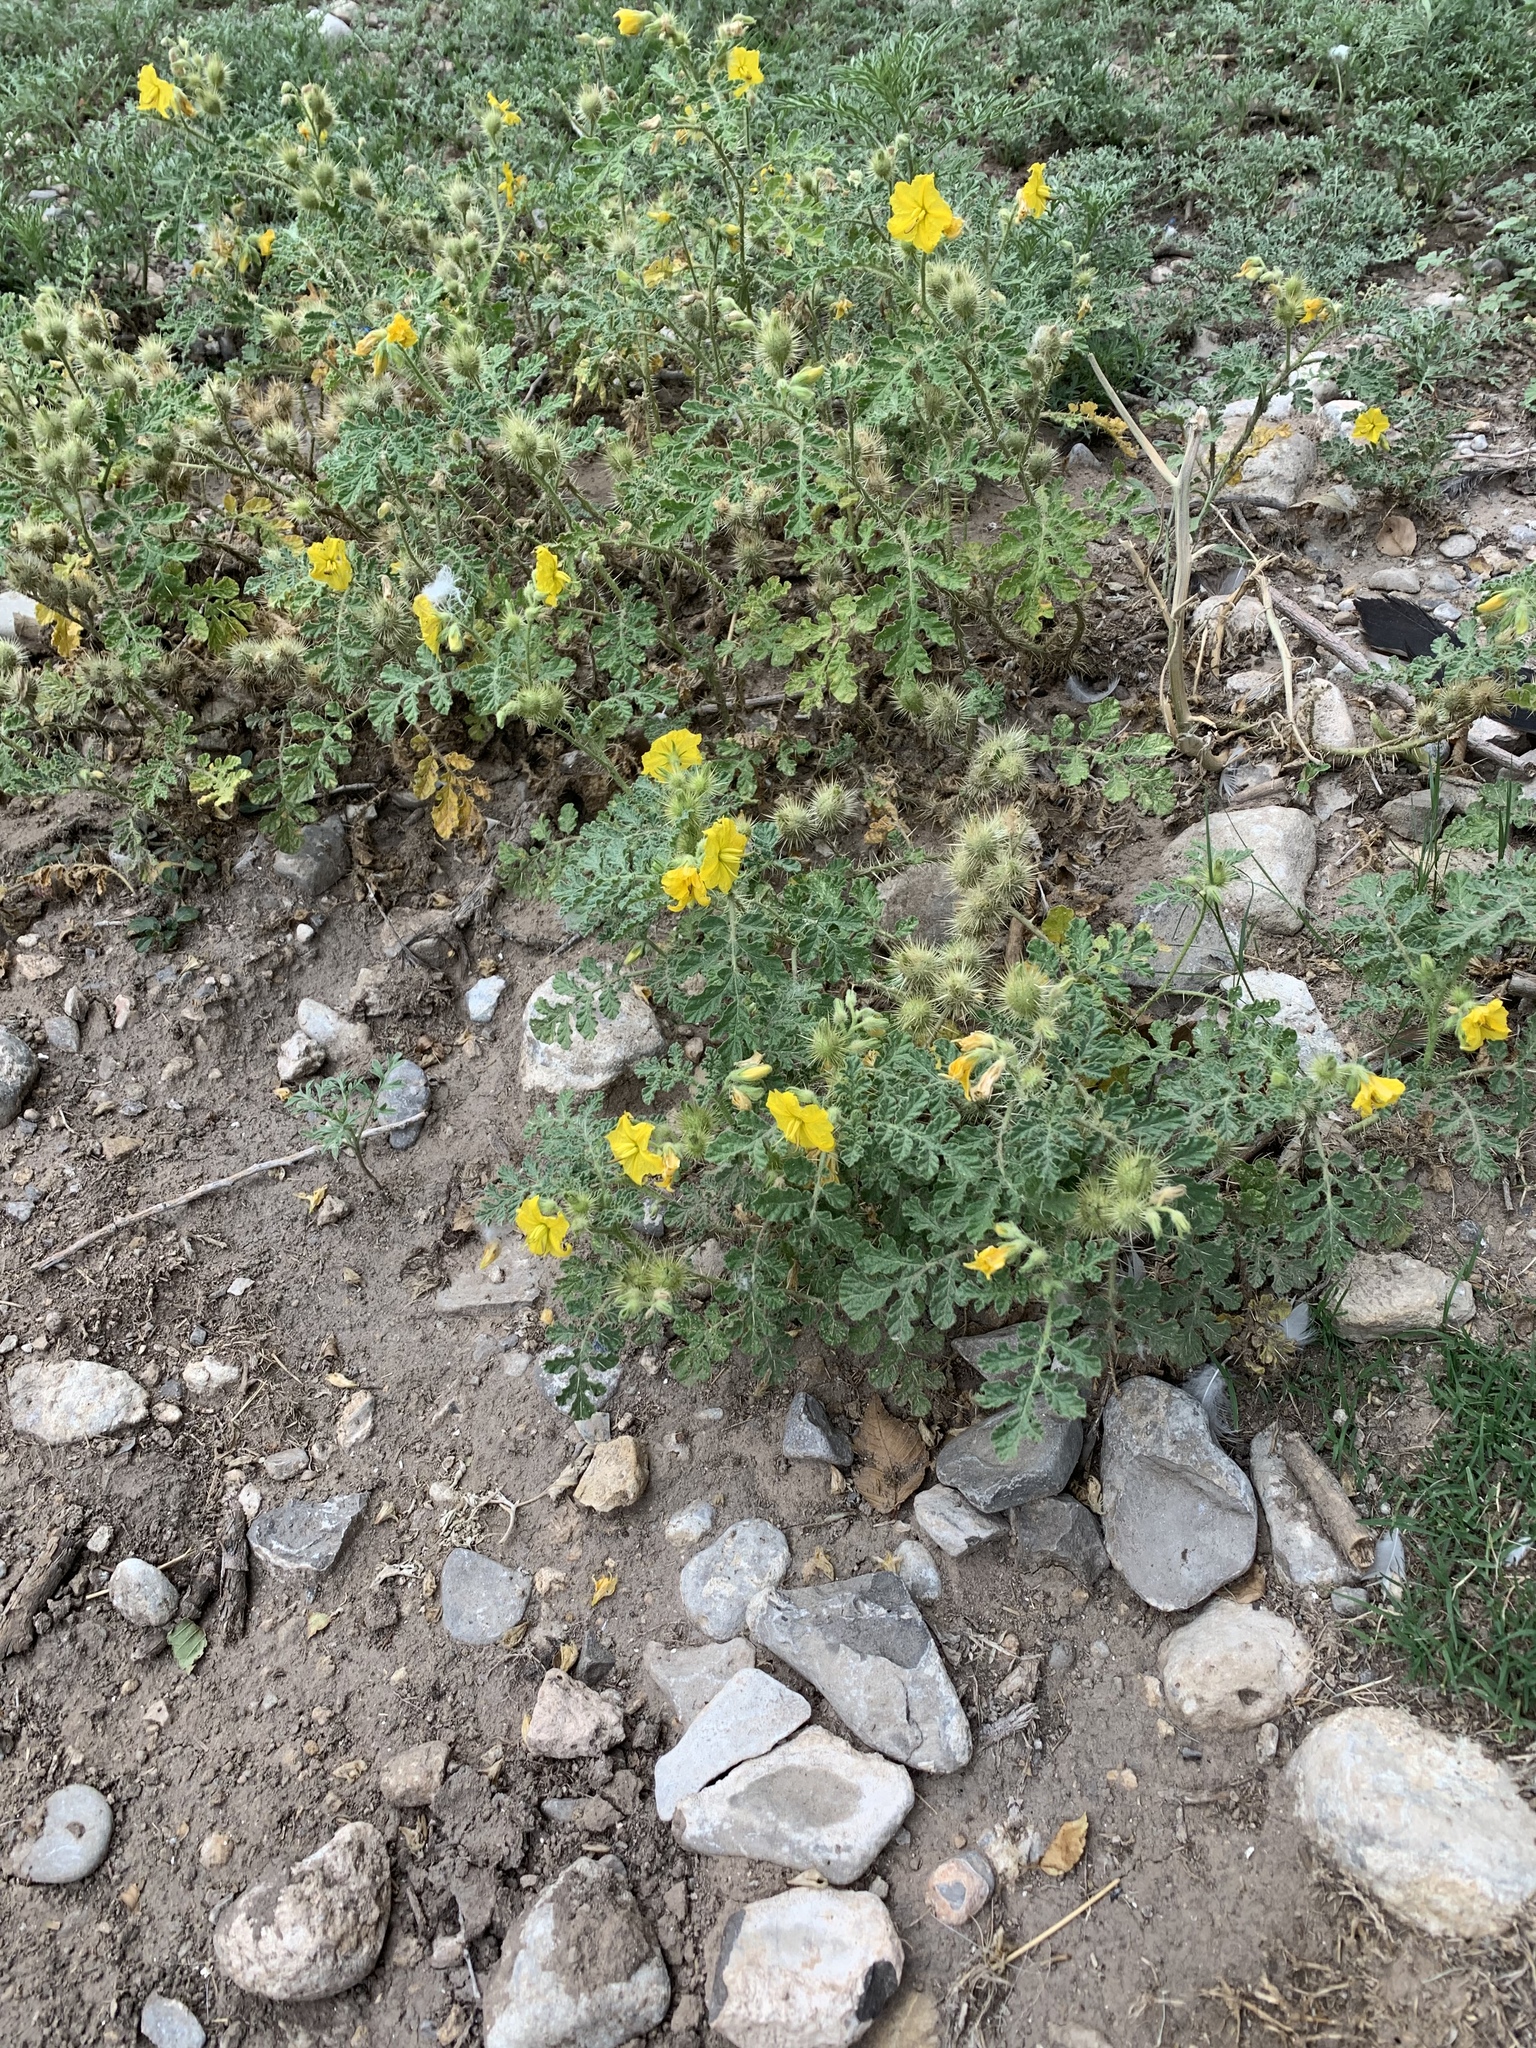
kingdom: Plantae
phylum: Tracheophyta
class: Magnoliopsida
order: Solanales
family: Solanaceae
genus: Solanum
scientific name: Solanum angustifolium
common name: Buffalobur nightshade
